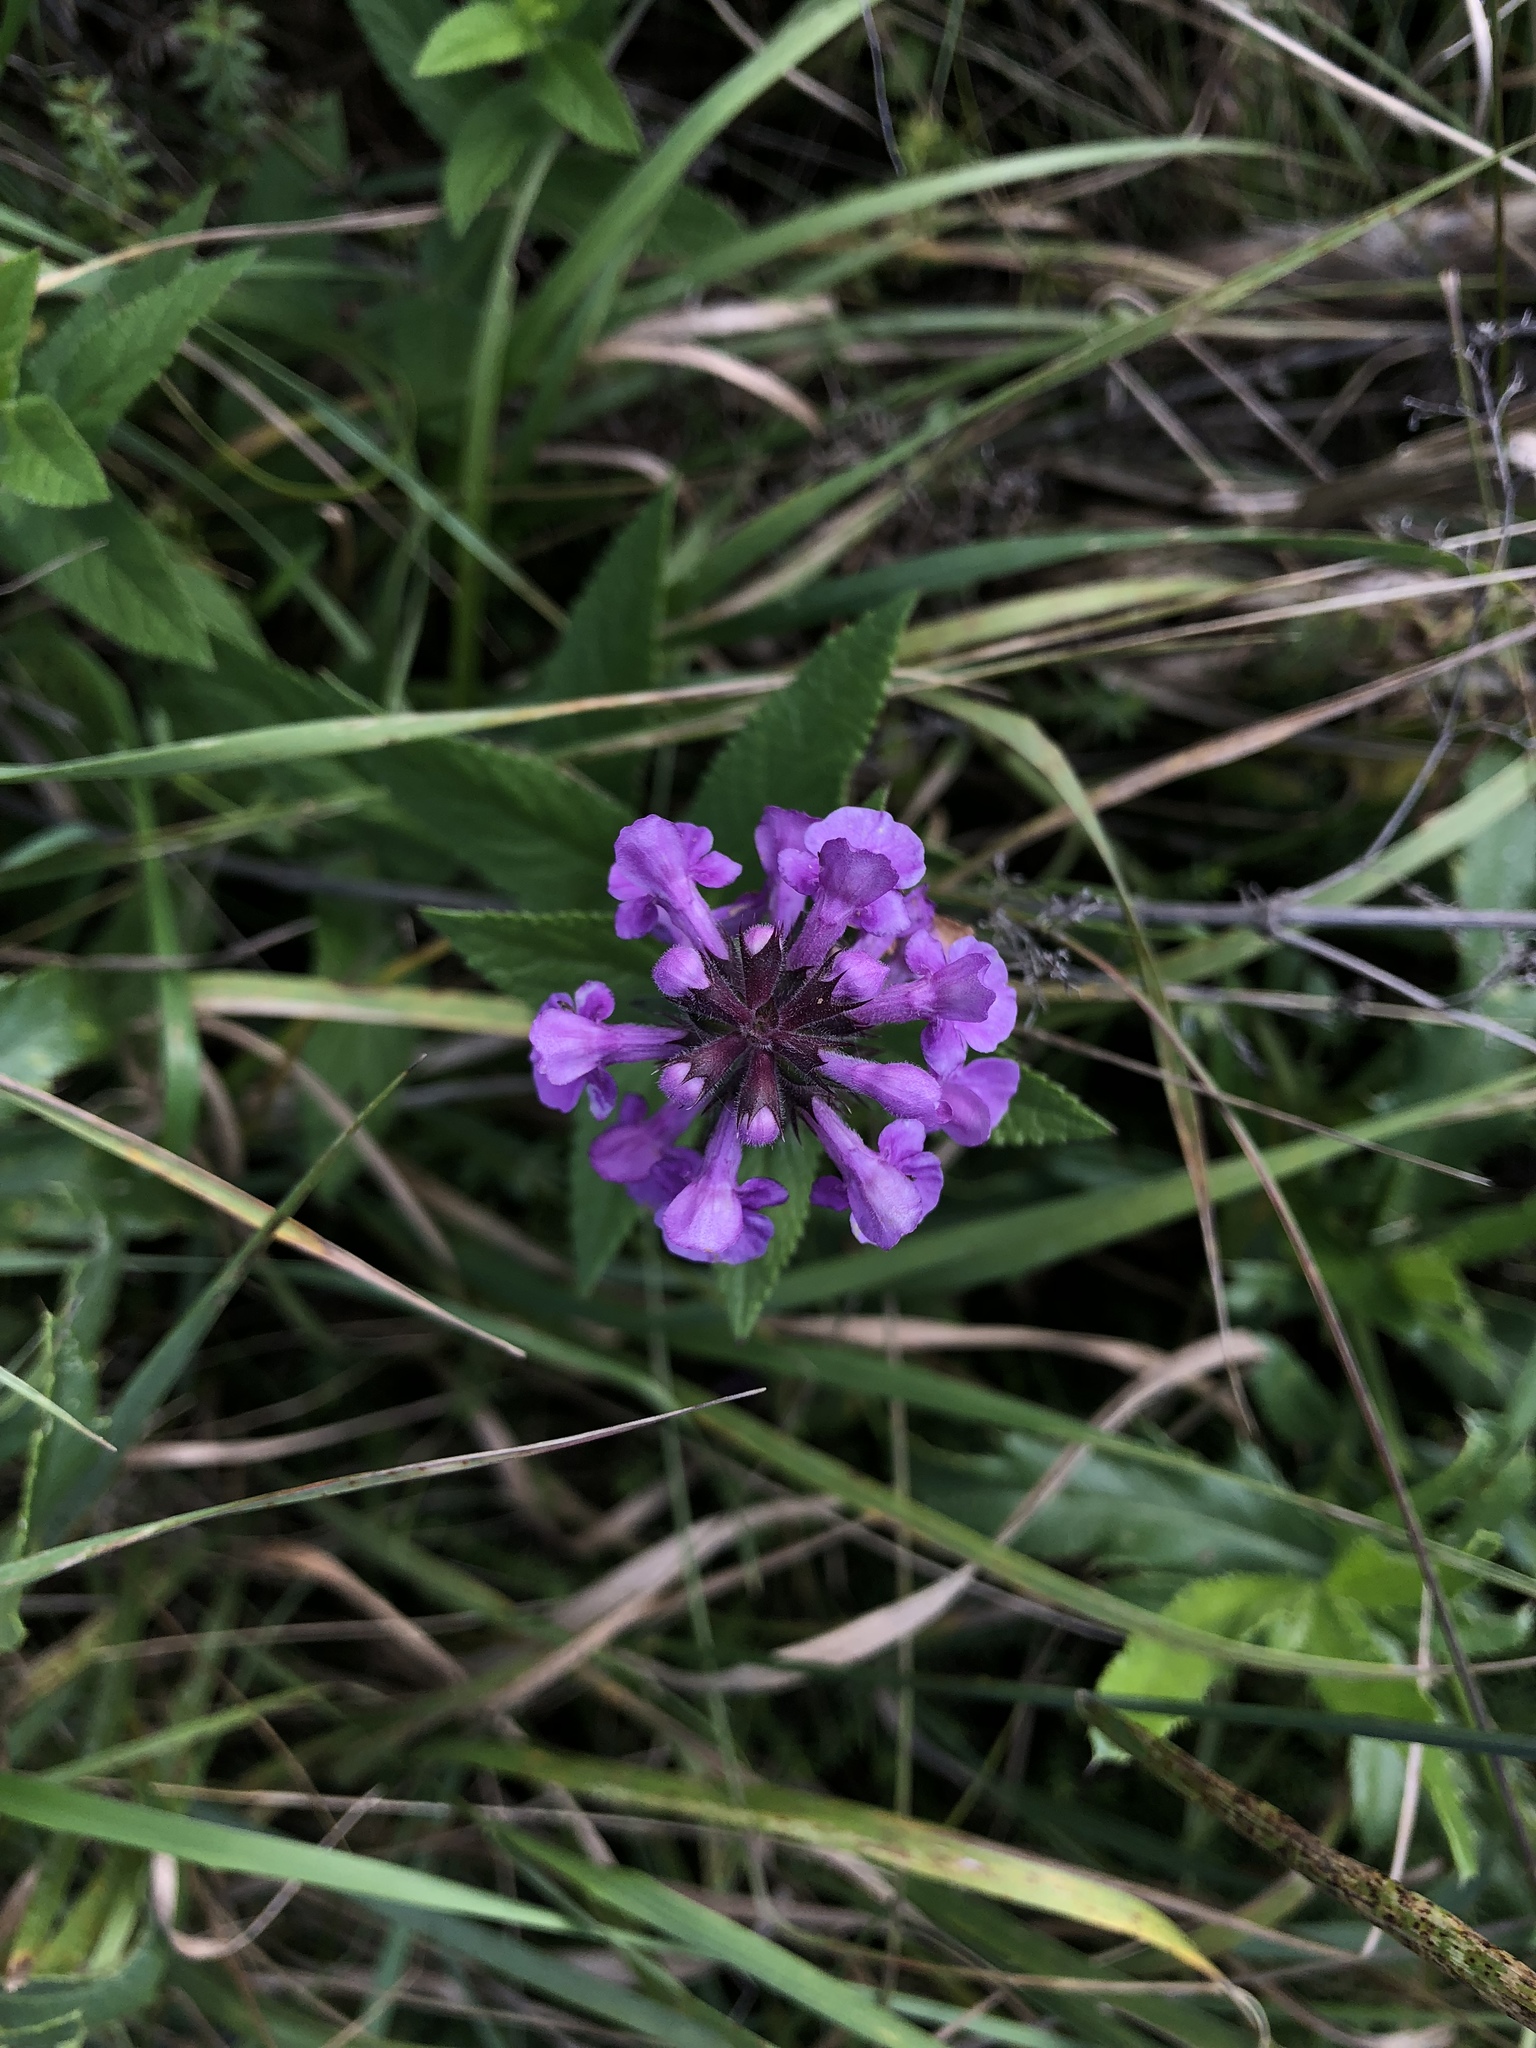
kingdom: Plantae
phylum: Tracheophyta
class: Magnoliopsida
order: Lamiales
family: Lamiaceae
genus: Stachys
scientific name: Stachys palustris
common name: Marsh woundwort
